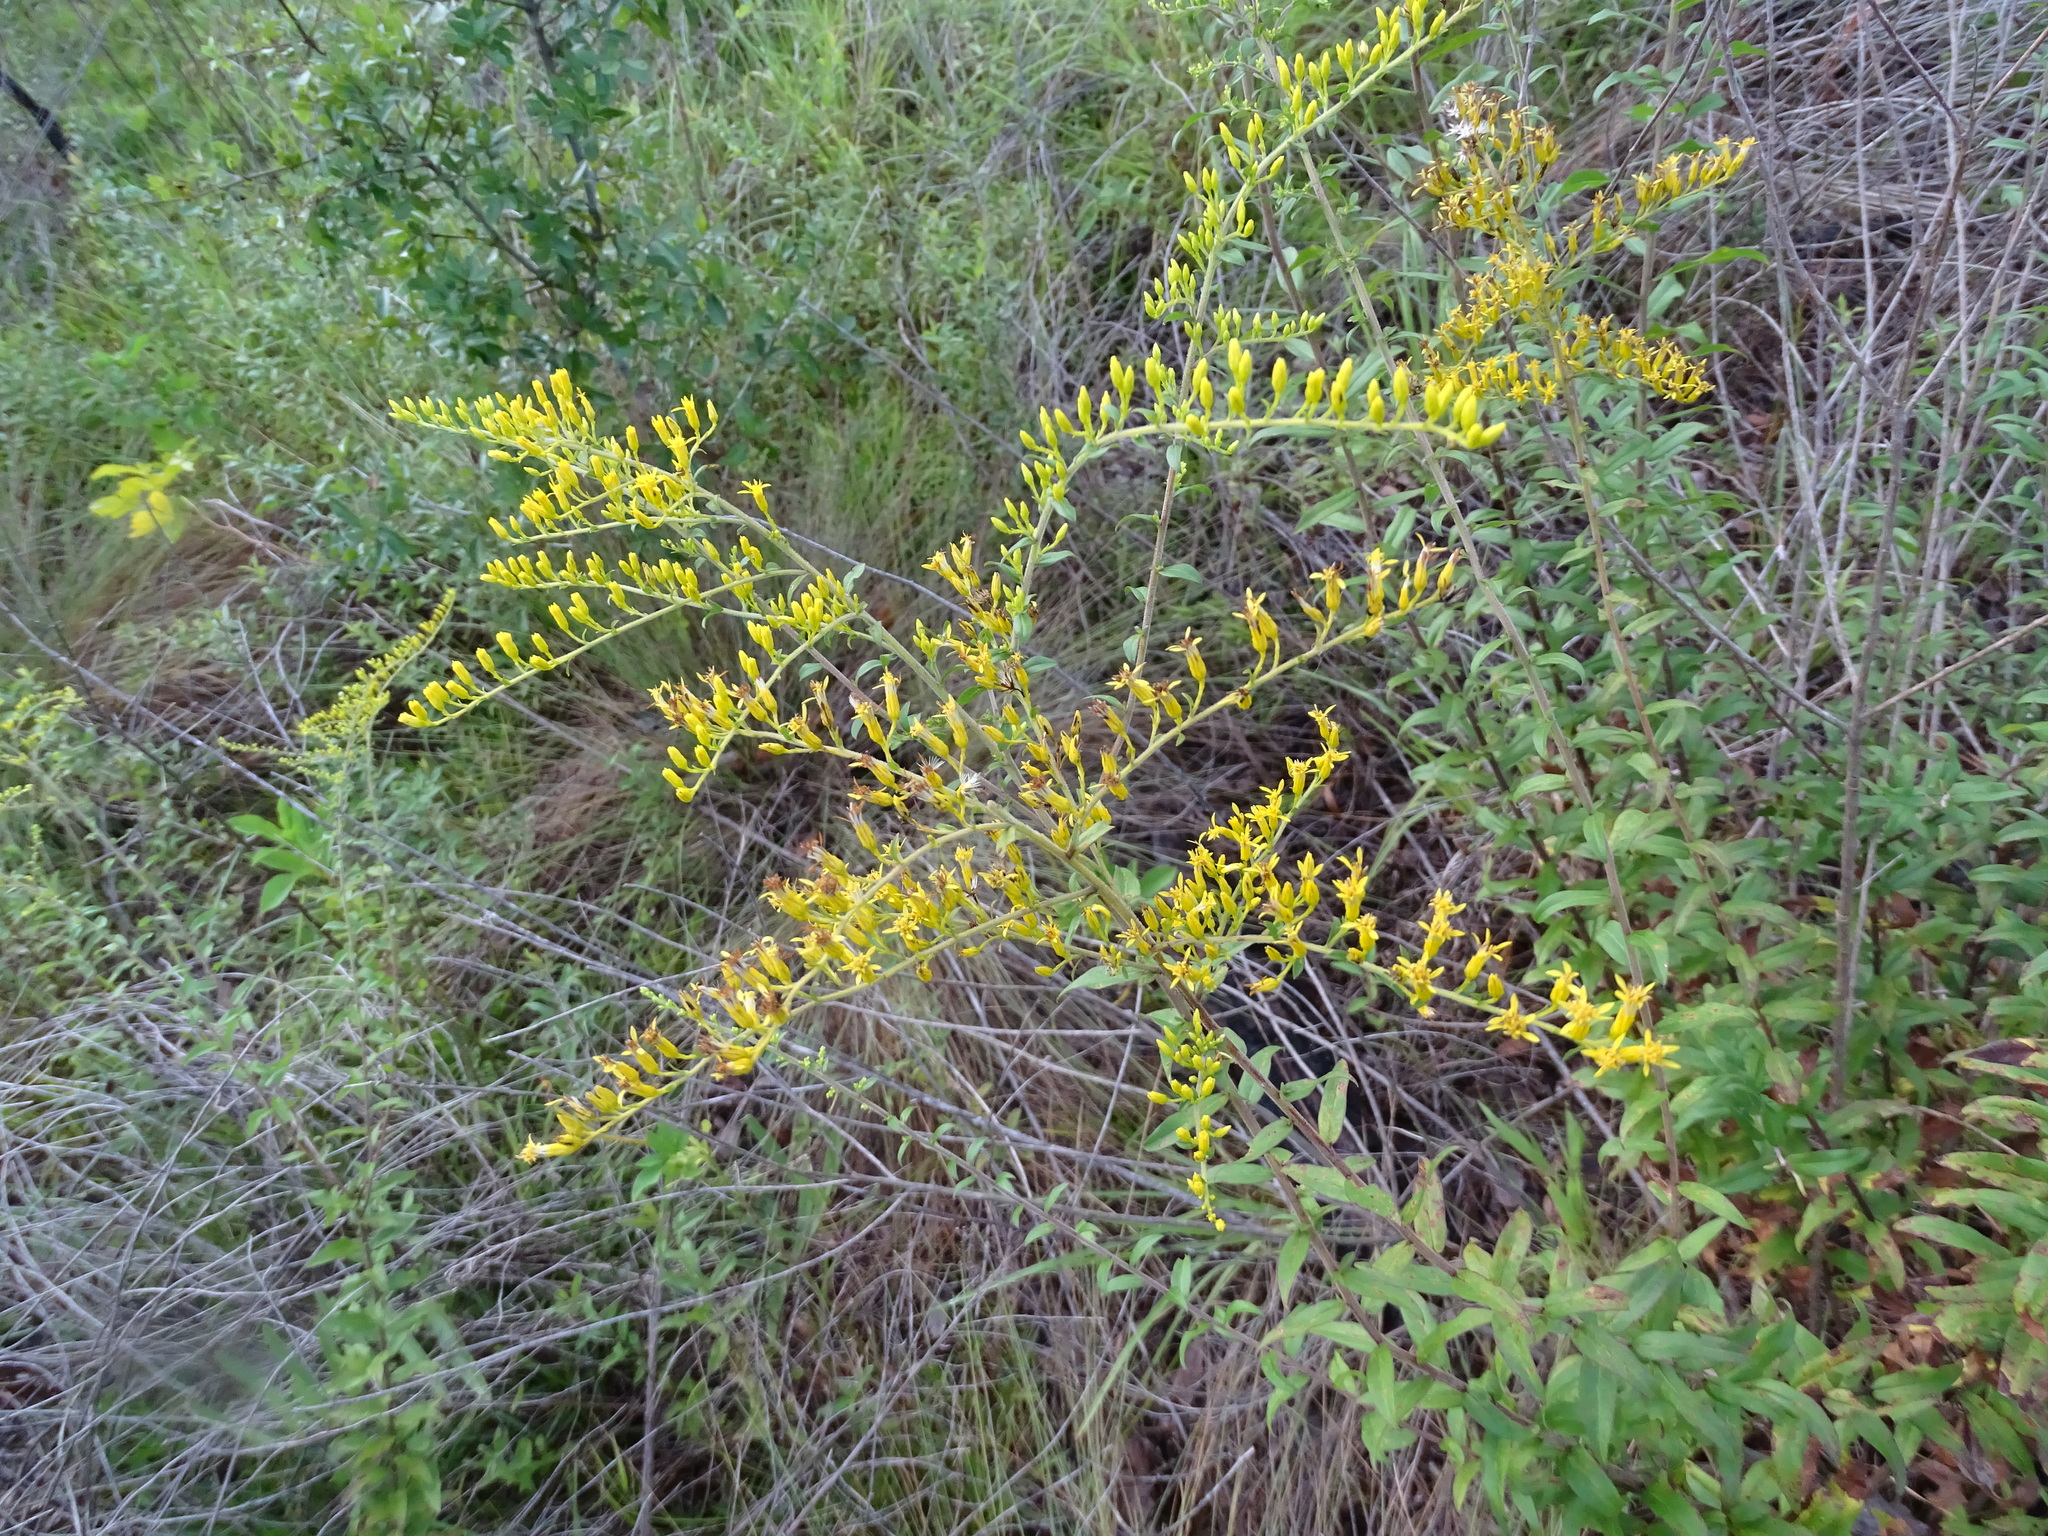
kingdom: Plantae
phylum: Tracheophyta
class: Magnoliopsida
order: Asterales
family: Asteraceae
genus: Solidago
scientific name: Solidago odora
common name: Anise-scented goldenrod
